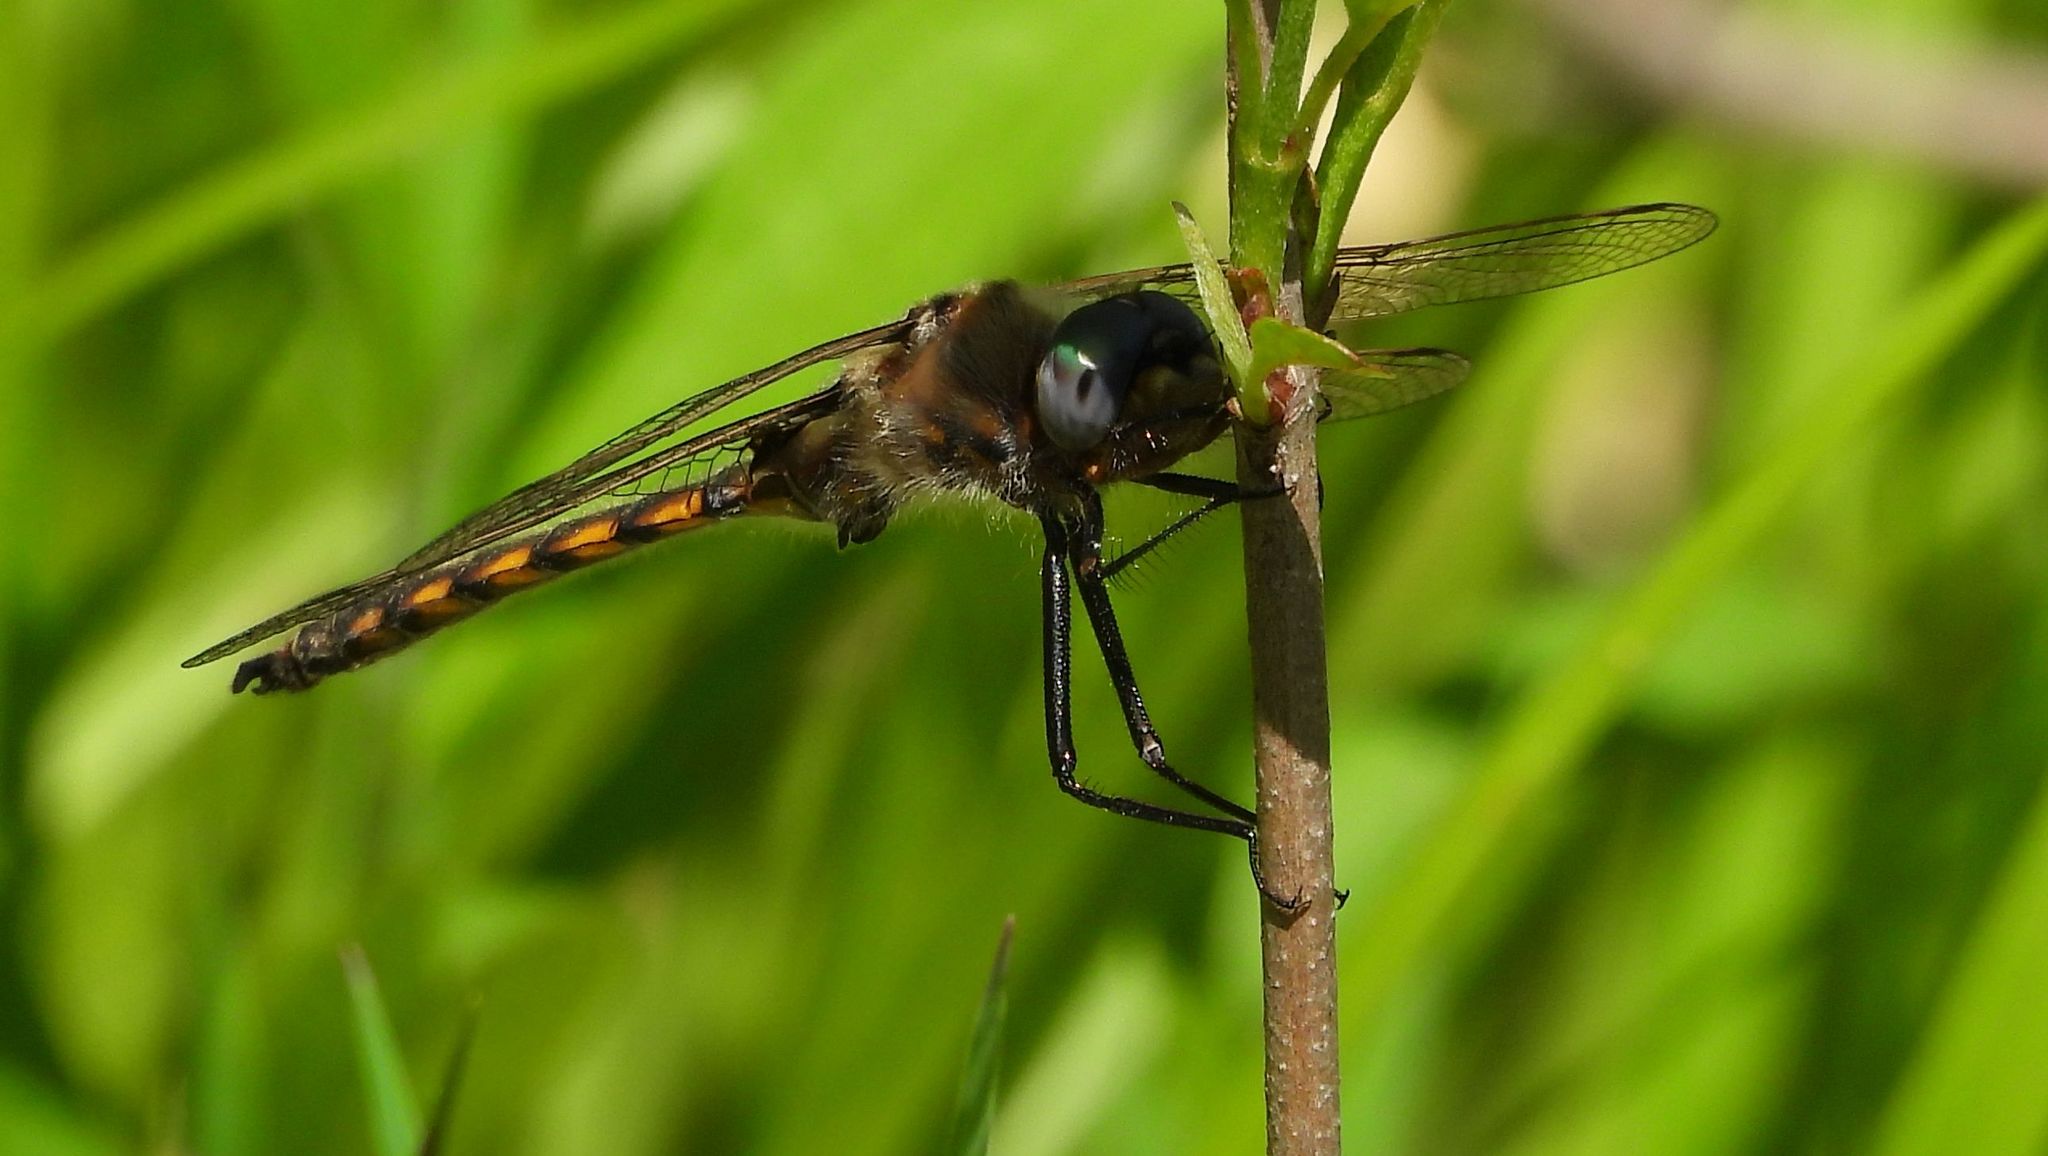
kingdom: Animalia
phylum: Arthropoda
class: Insecta
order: Odonata
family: Corduliidae
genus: Epitheca
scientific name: Epitheca canis
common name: Beaverpond baskettail
